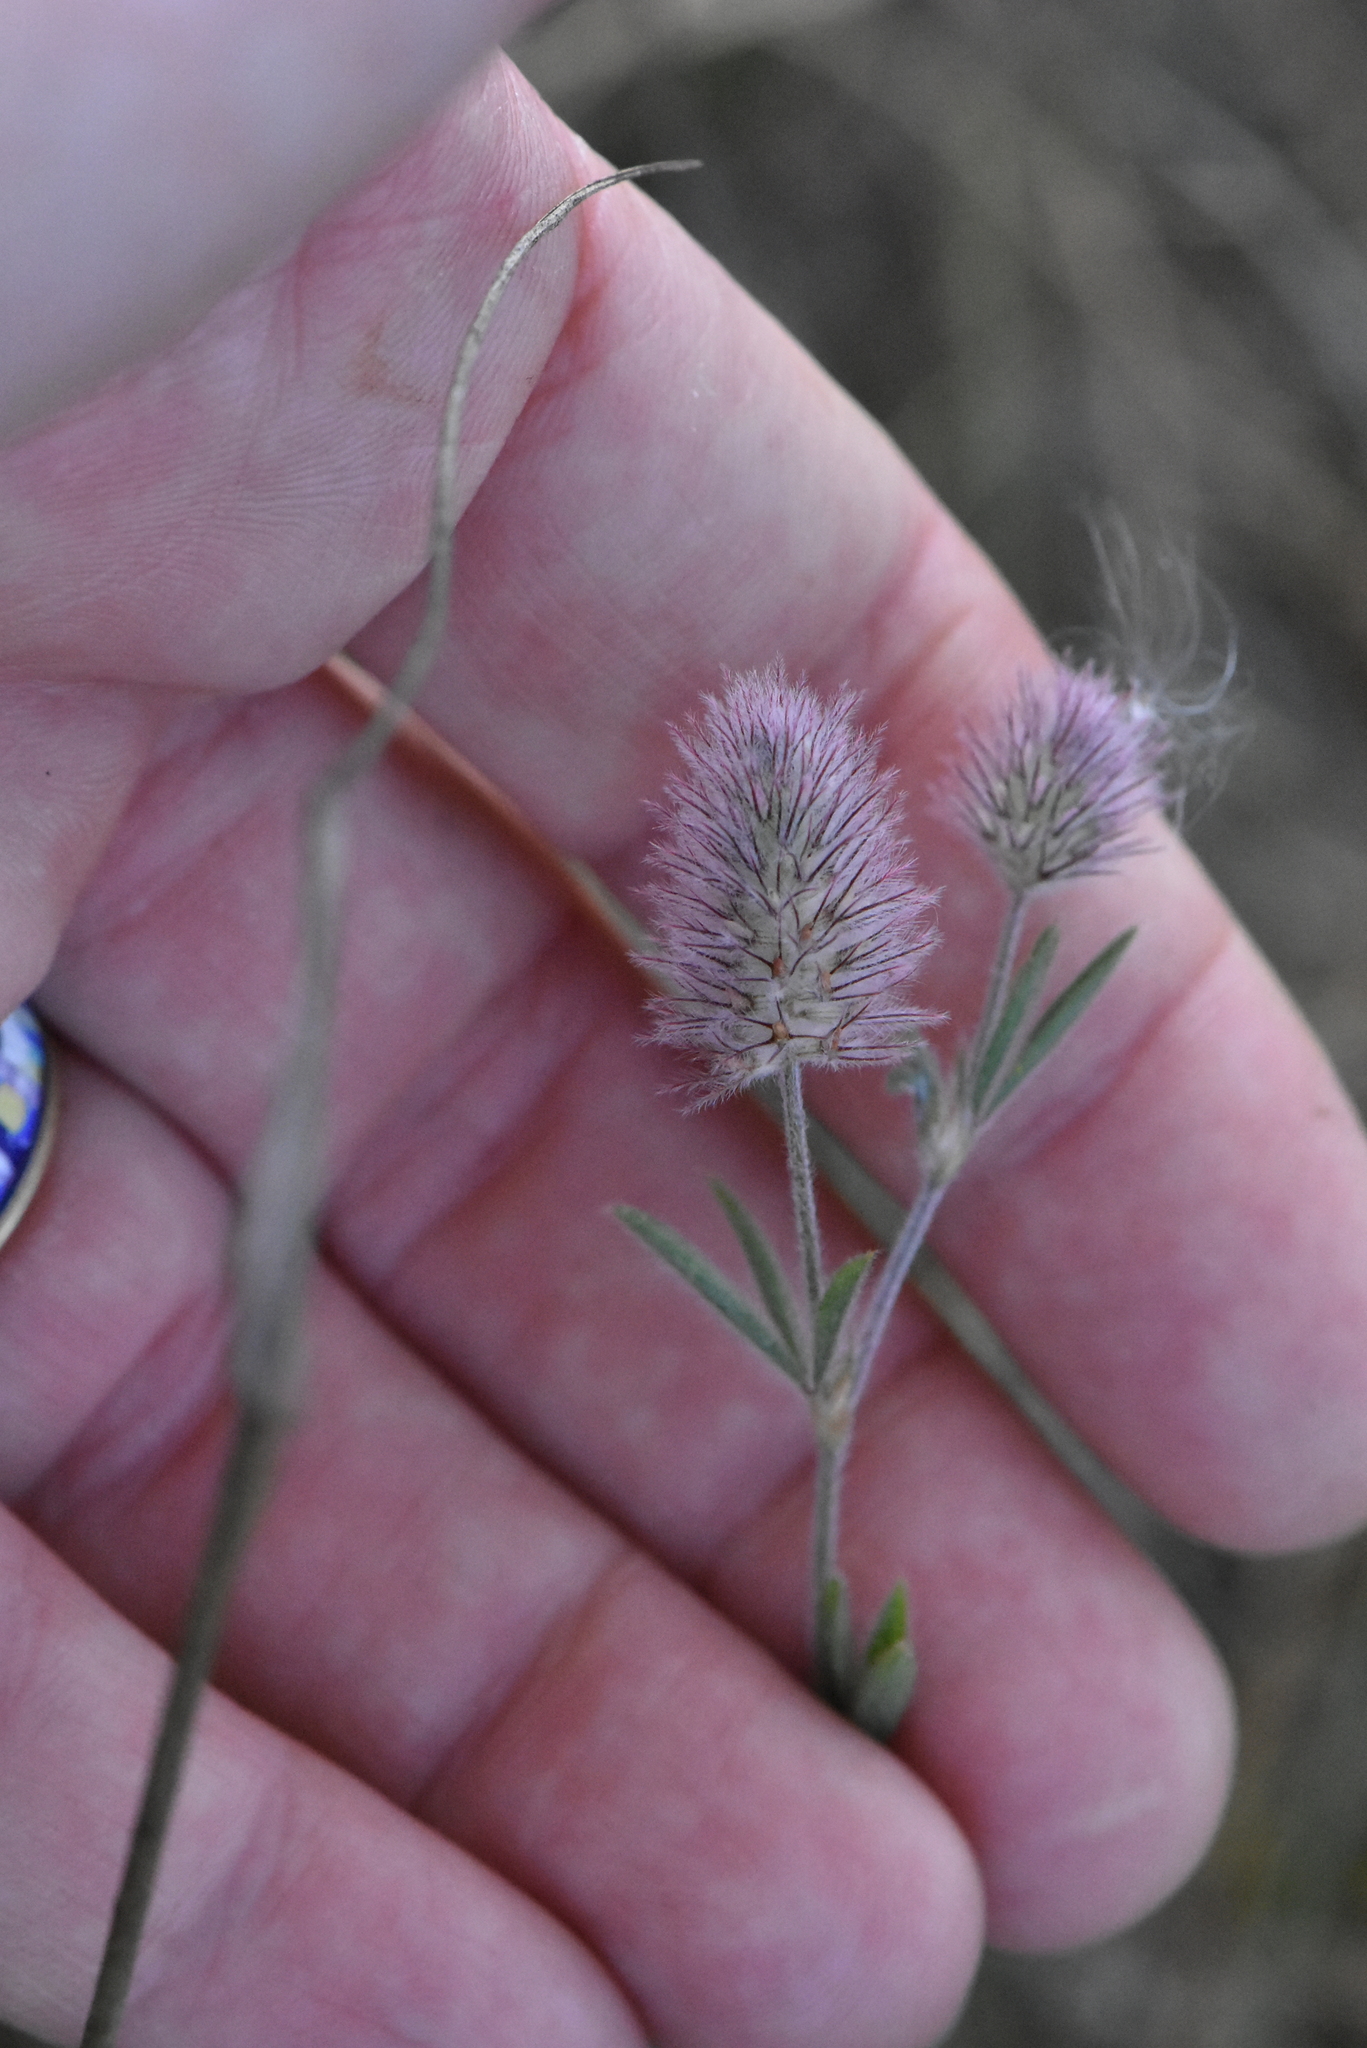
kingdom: Plantae
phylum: Tracheophyta
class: Magnoliopsida
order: Fabales
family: Fabaceae
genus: Trifolium
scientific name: Trifolium arvense
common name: Hare's-foot clover
